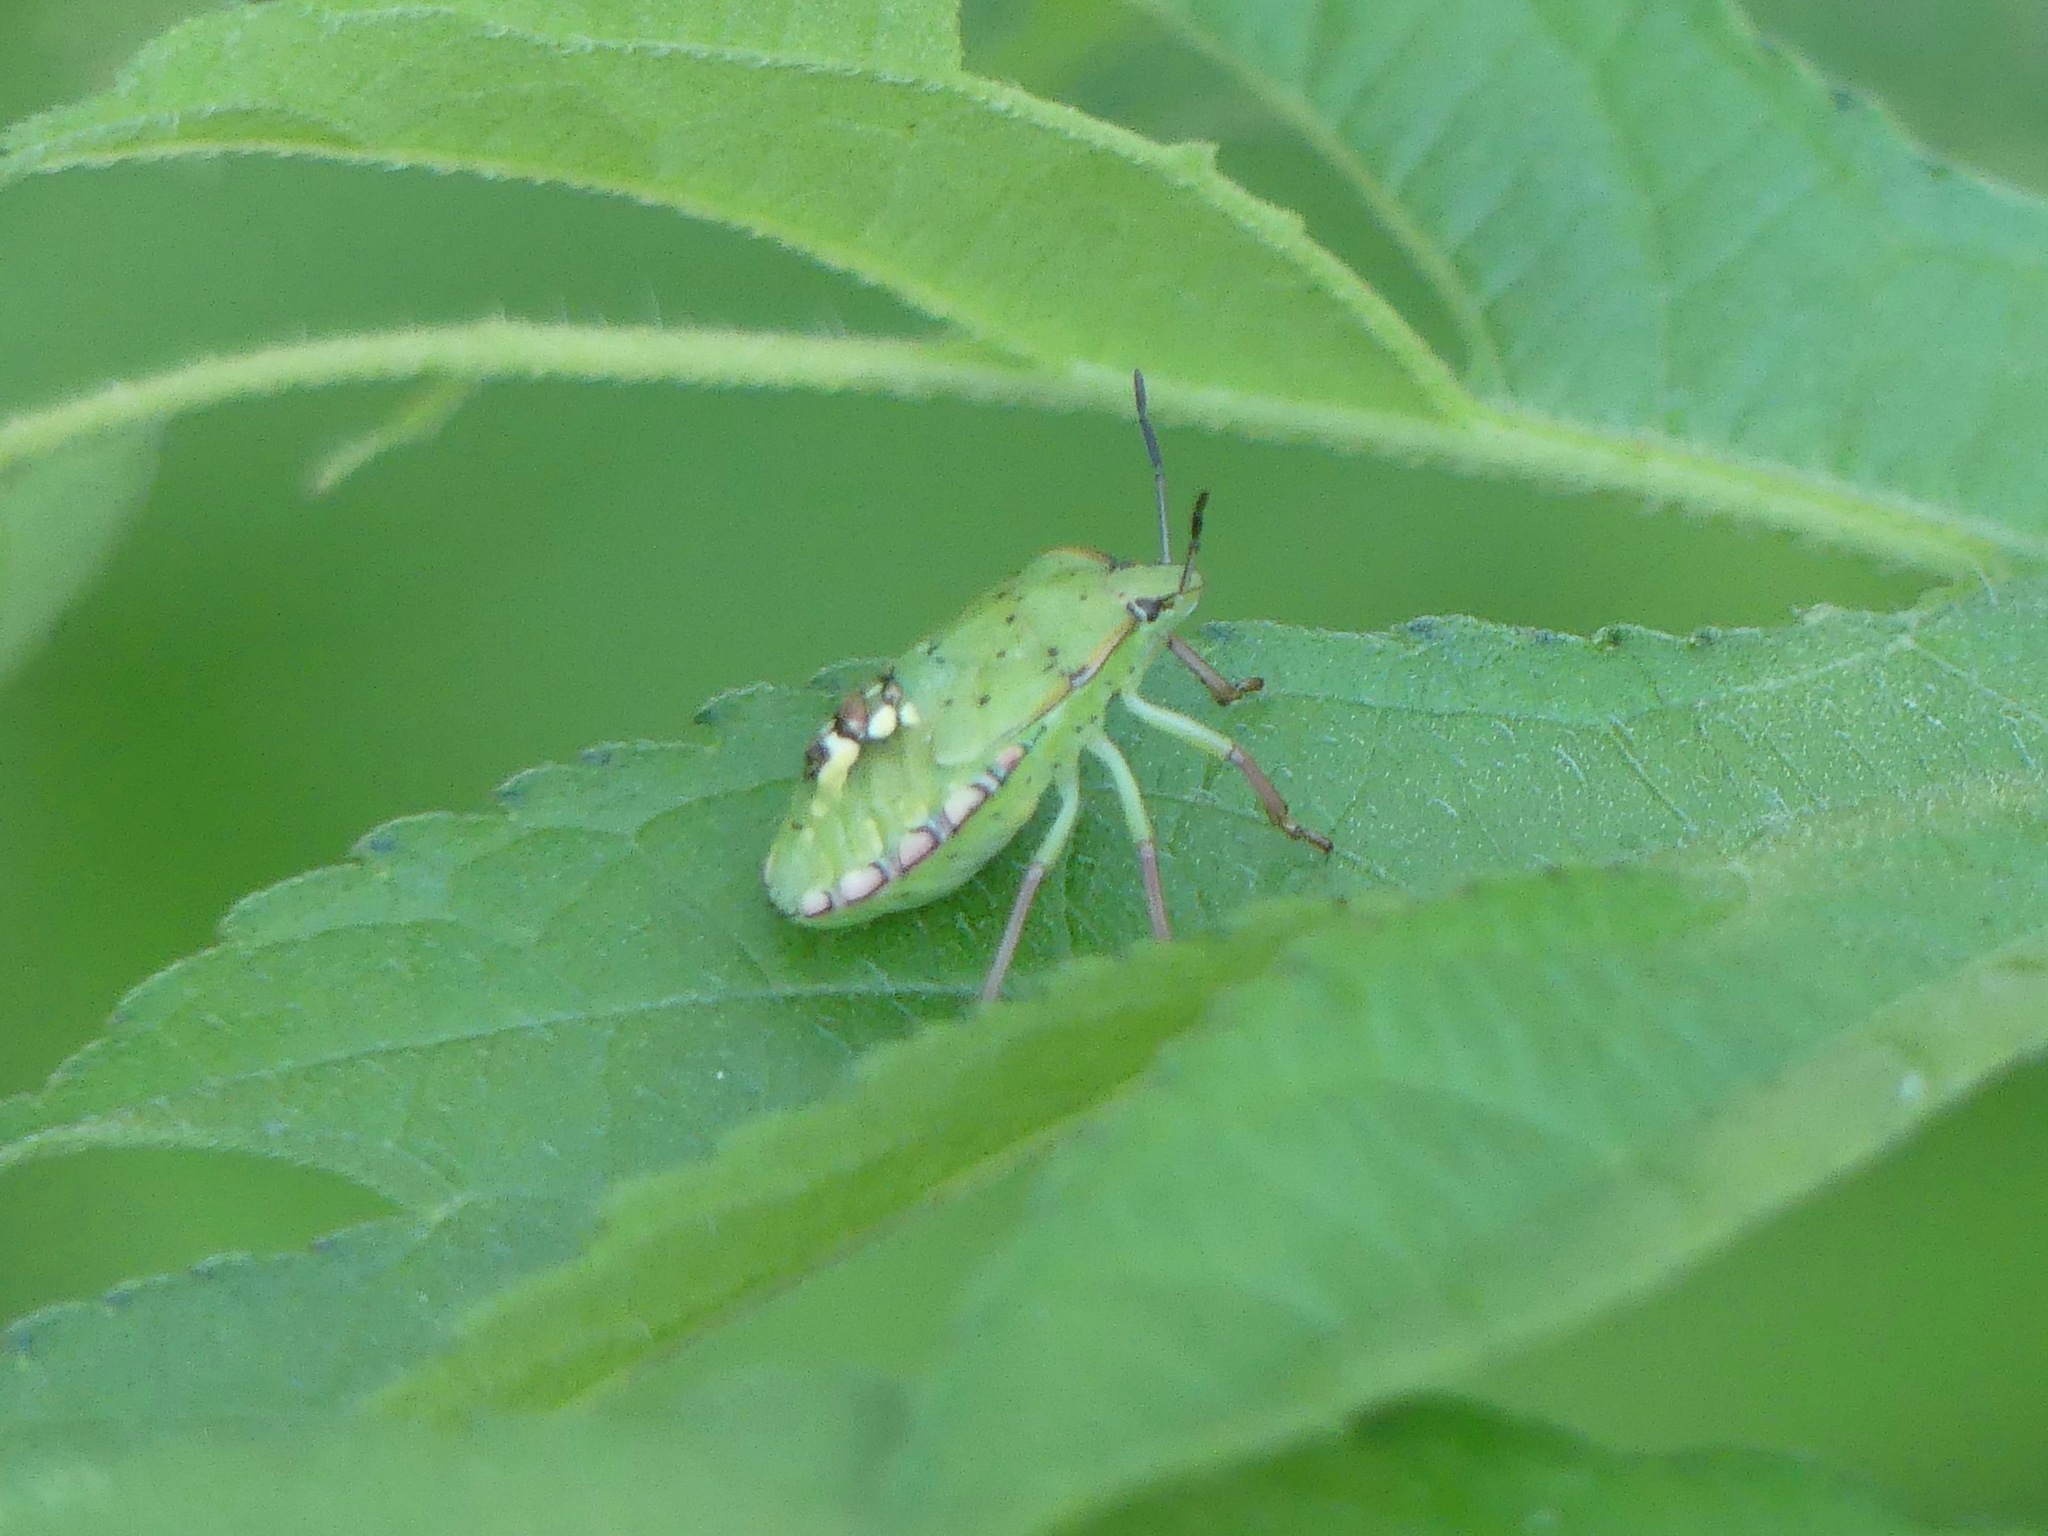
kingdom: Animalia
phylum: Arthropoda
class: Insecta
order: Hemiptera
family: Pentatomidae
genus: Nezara
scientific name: Nezara viridula
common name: Southern green stink bug
